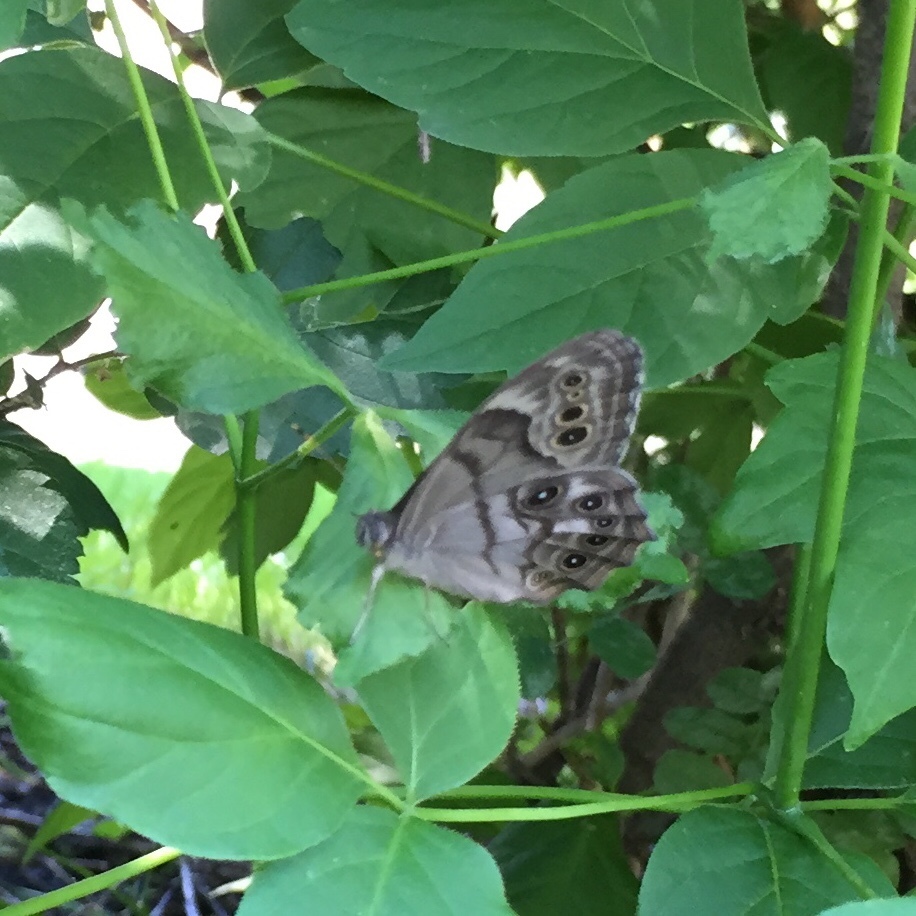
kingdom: Animalia
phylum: Arthropoda
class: Insecta
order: Lepidoptera
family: Nymphalidae
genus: Lethe
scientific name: Lethe anthedon
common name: Northern pearly-eye
